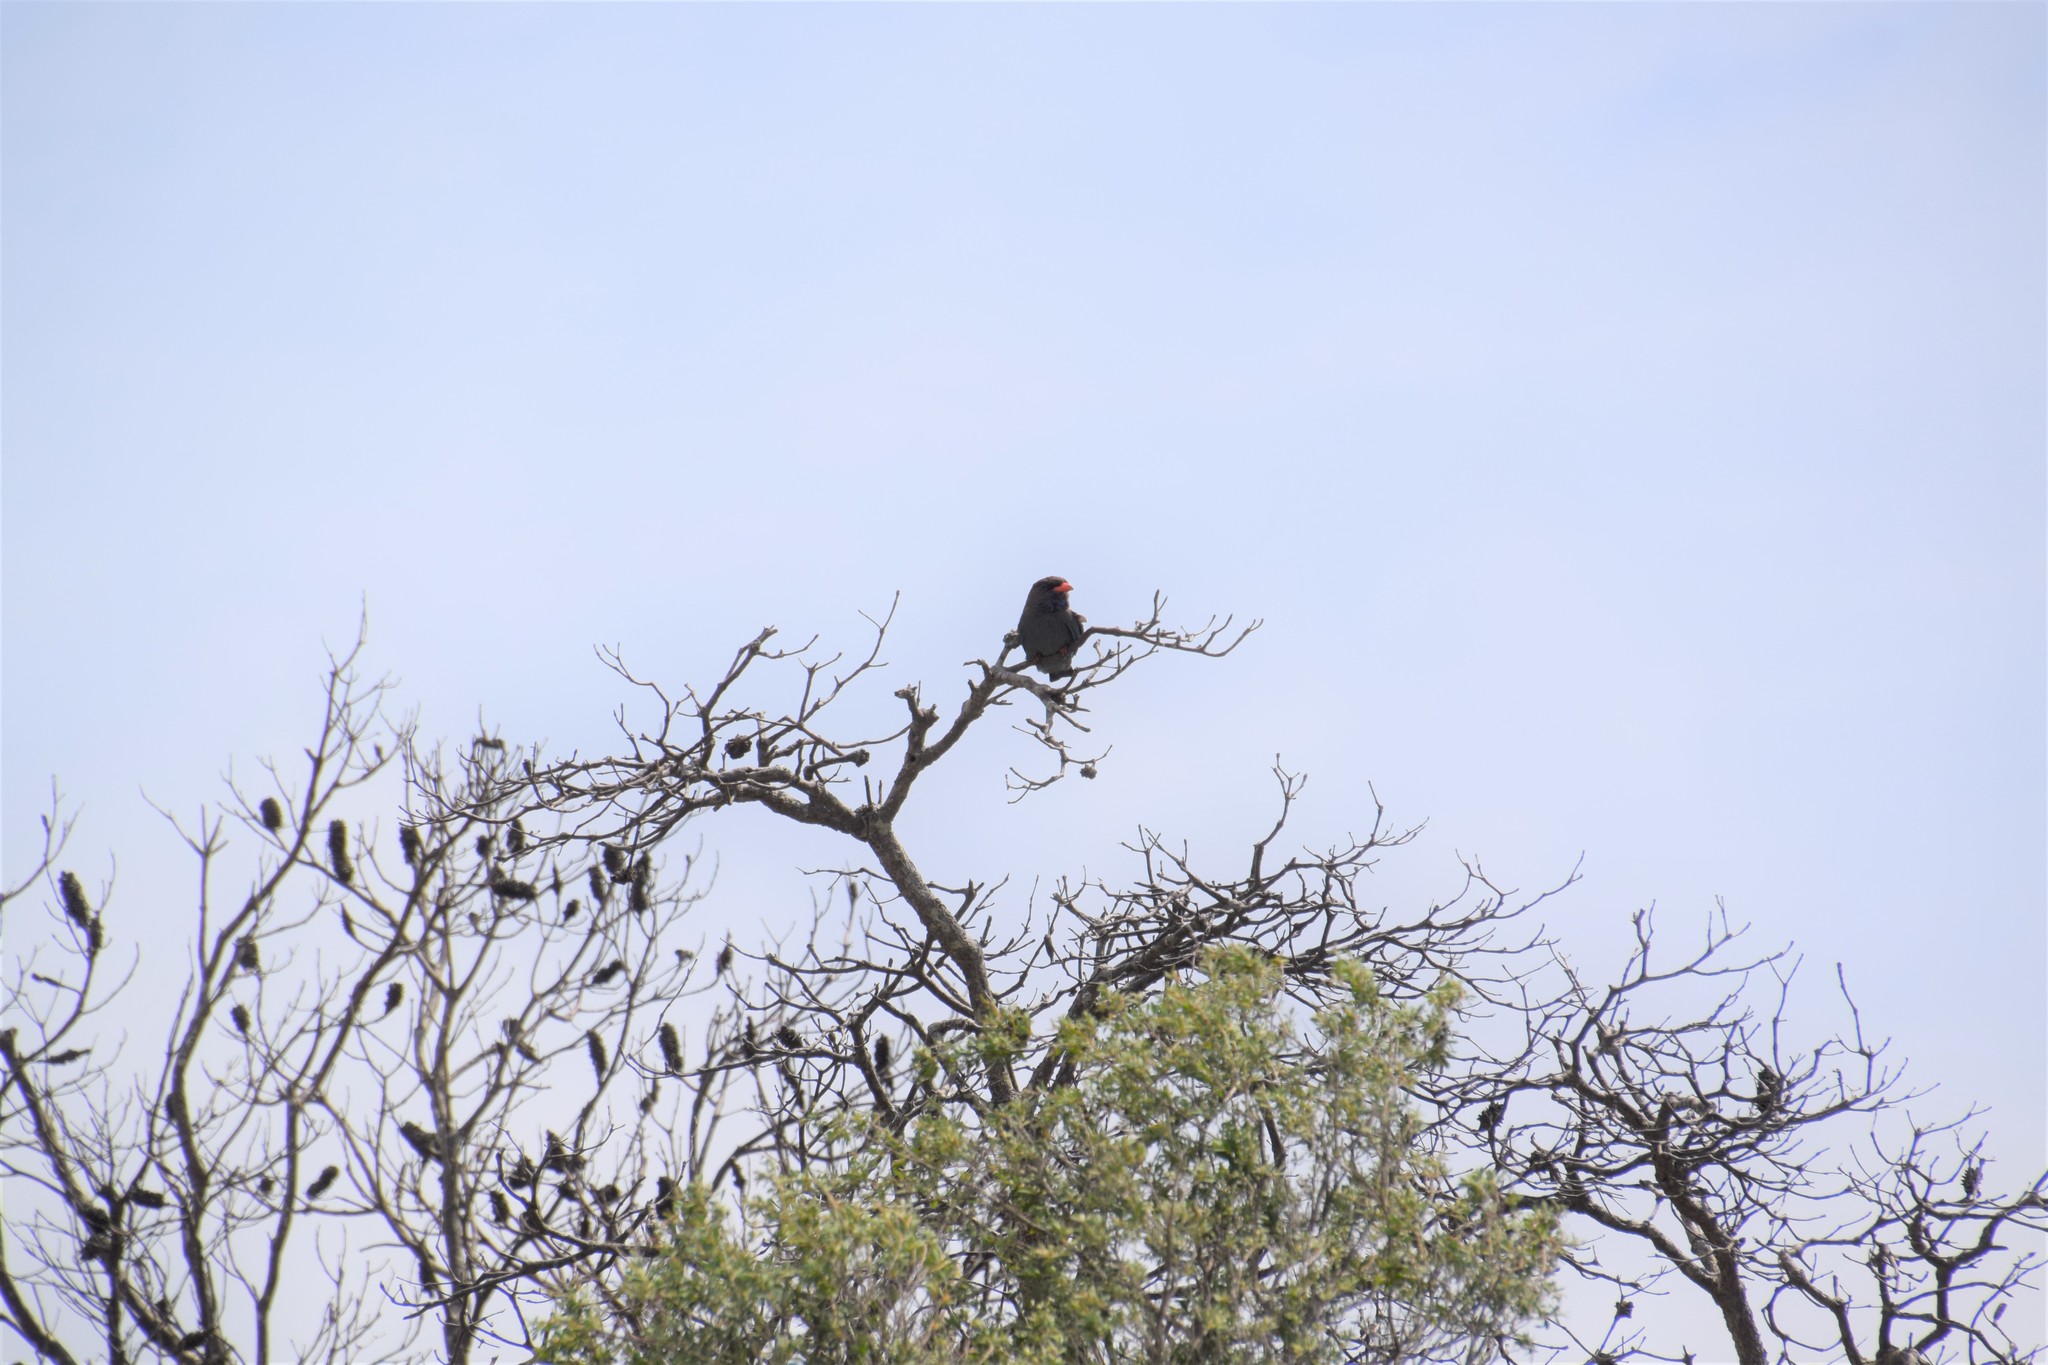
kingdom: Animalia
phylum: Chordata
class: Aves
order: Coraciiformes
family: Coraciidae
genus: Eurystomus
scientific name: Eurystomus orientalis
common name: Oriental dollarbird
